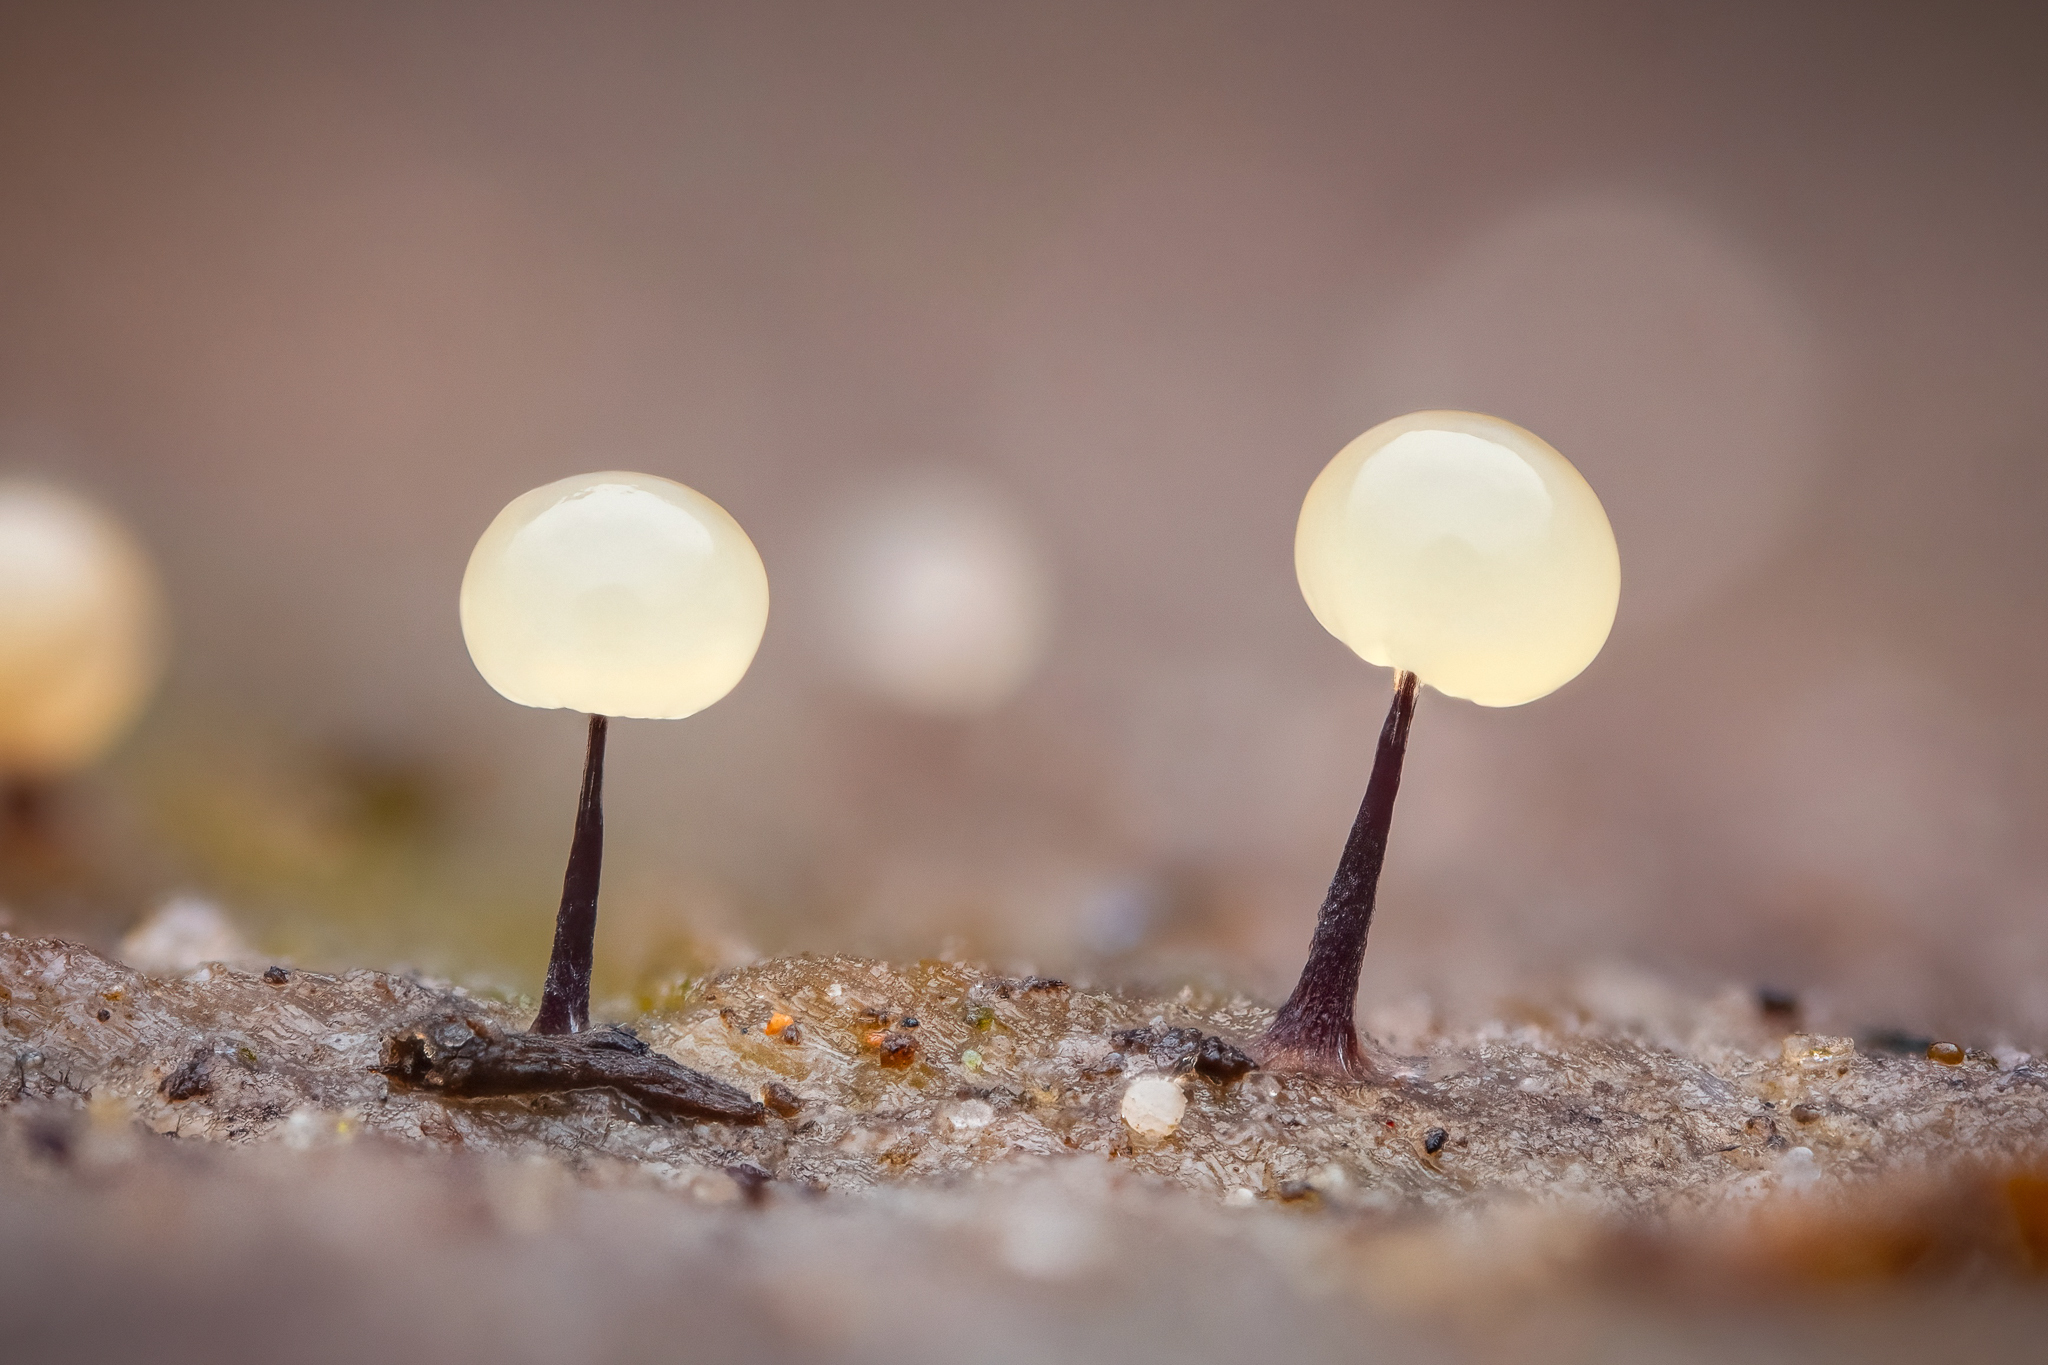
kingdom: Protozoa
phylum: Mycetozoa
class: Myxomycetes
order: Stemonitidales
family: Stemonitidaceae
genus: Comatricha
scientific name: Comatricha nigra
